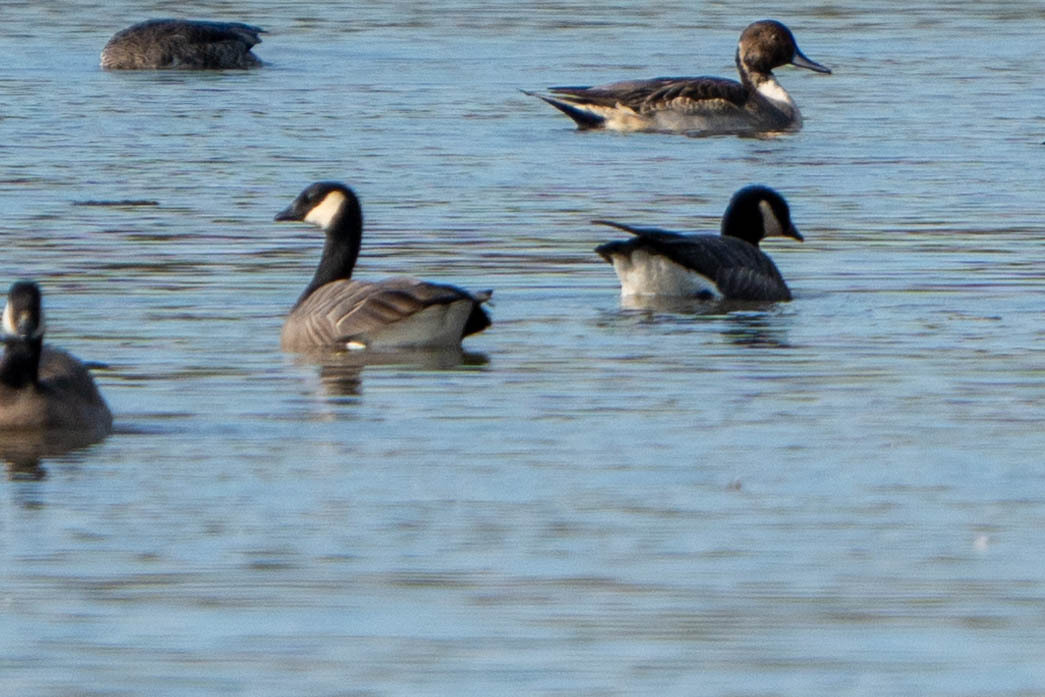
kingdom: Animalia
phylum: Chordata
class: Aves
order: Anseriformes
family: Anatidae
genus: Branta
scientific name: Branta hutchinsii
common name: Cackling goose
